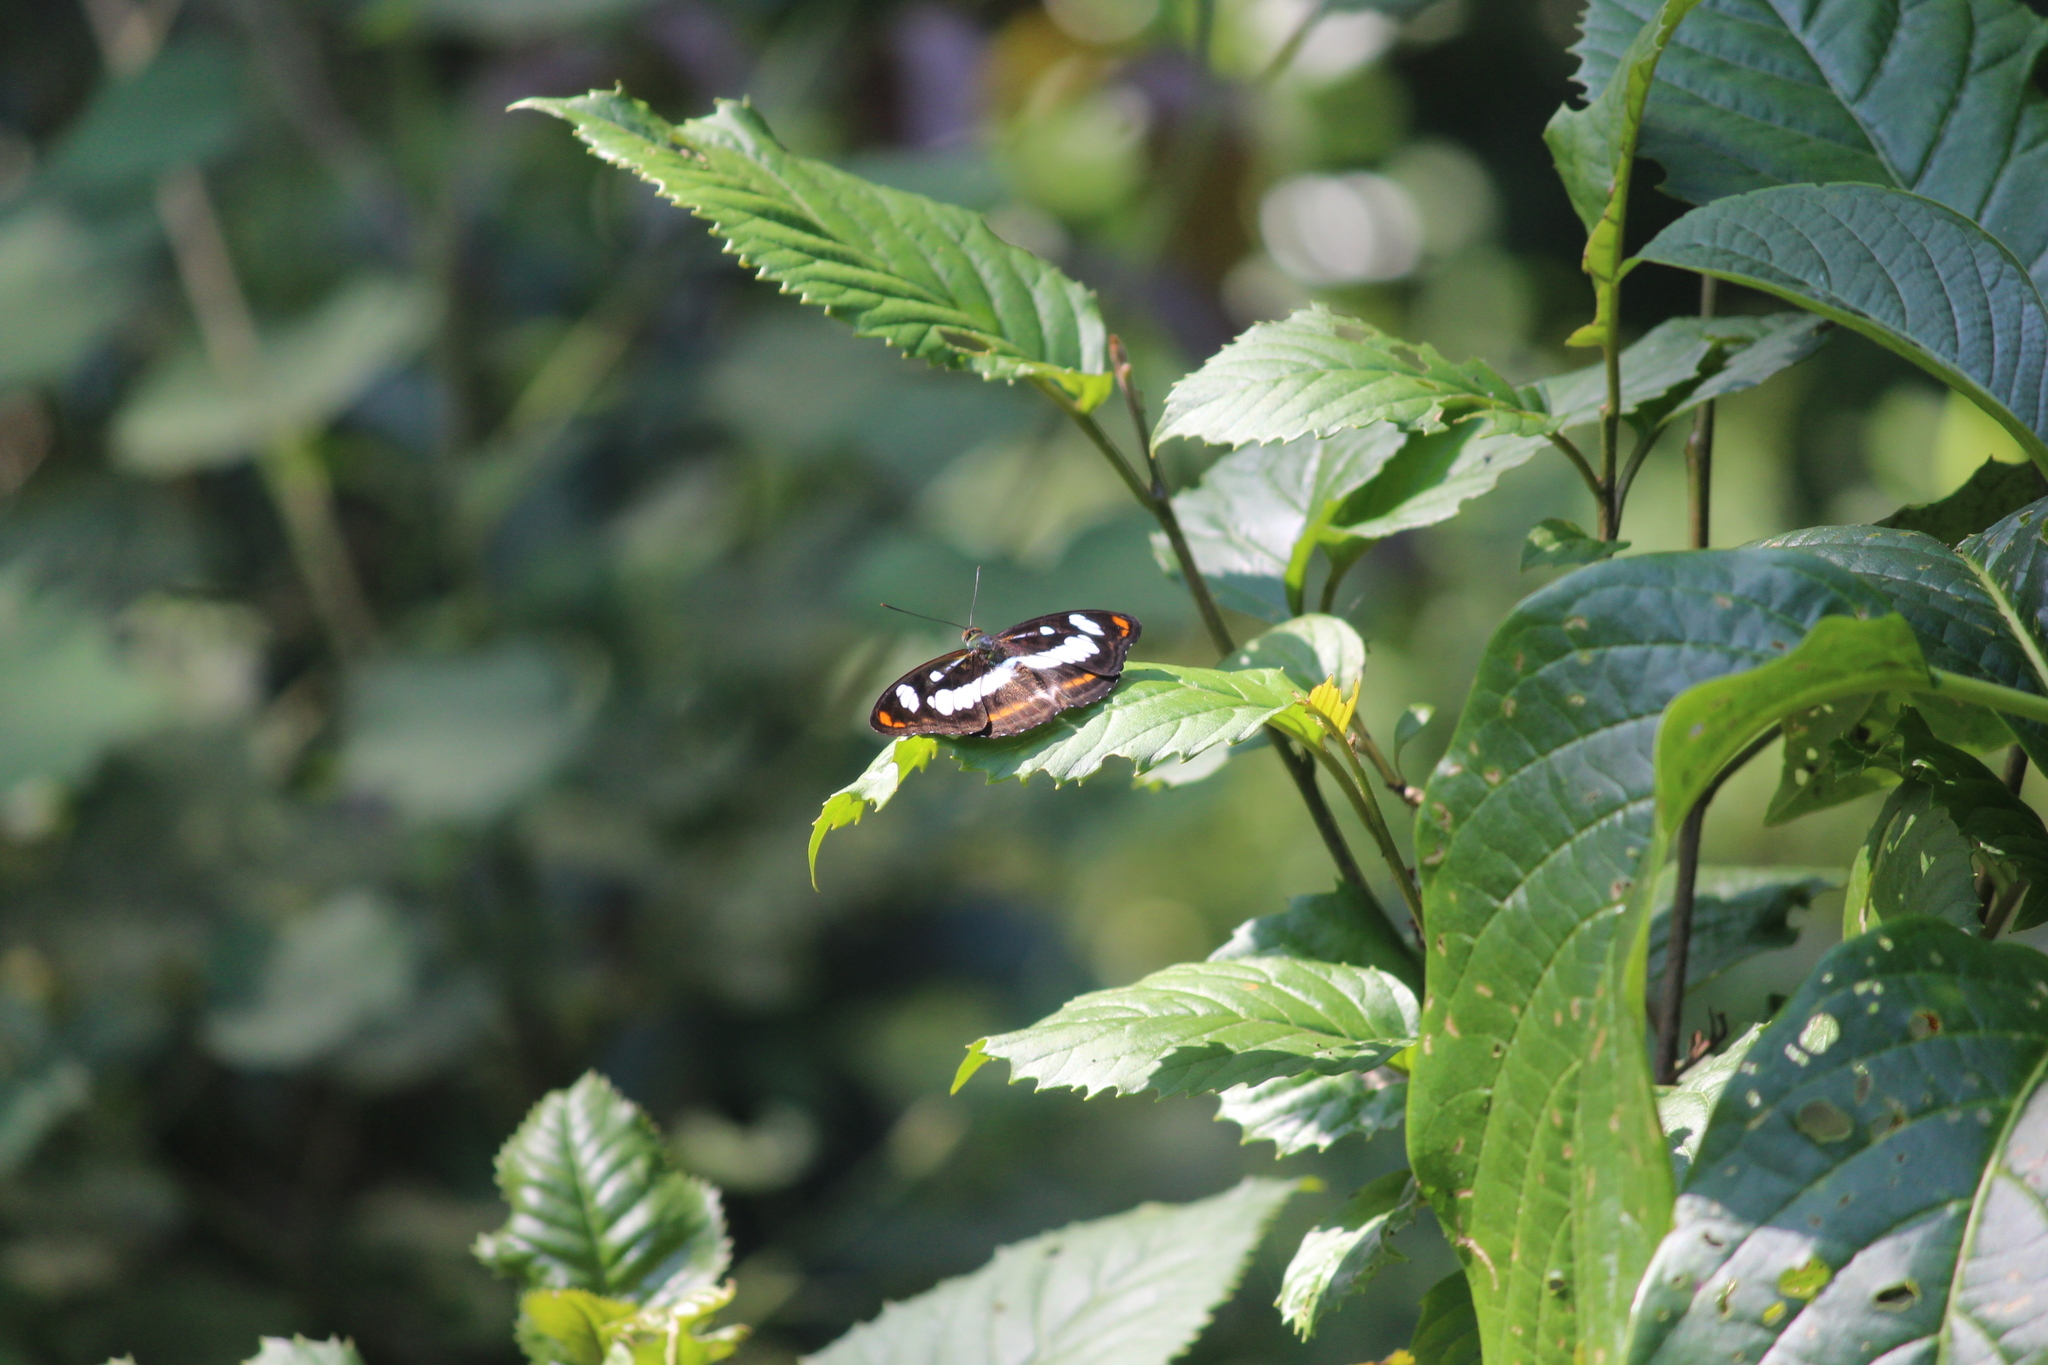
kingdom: Animalia
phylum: Arthropoda
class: Insecta
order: Lepidoptera
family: Nymphalidae
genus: Parathyma
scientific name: Parathyma nefte
